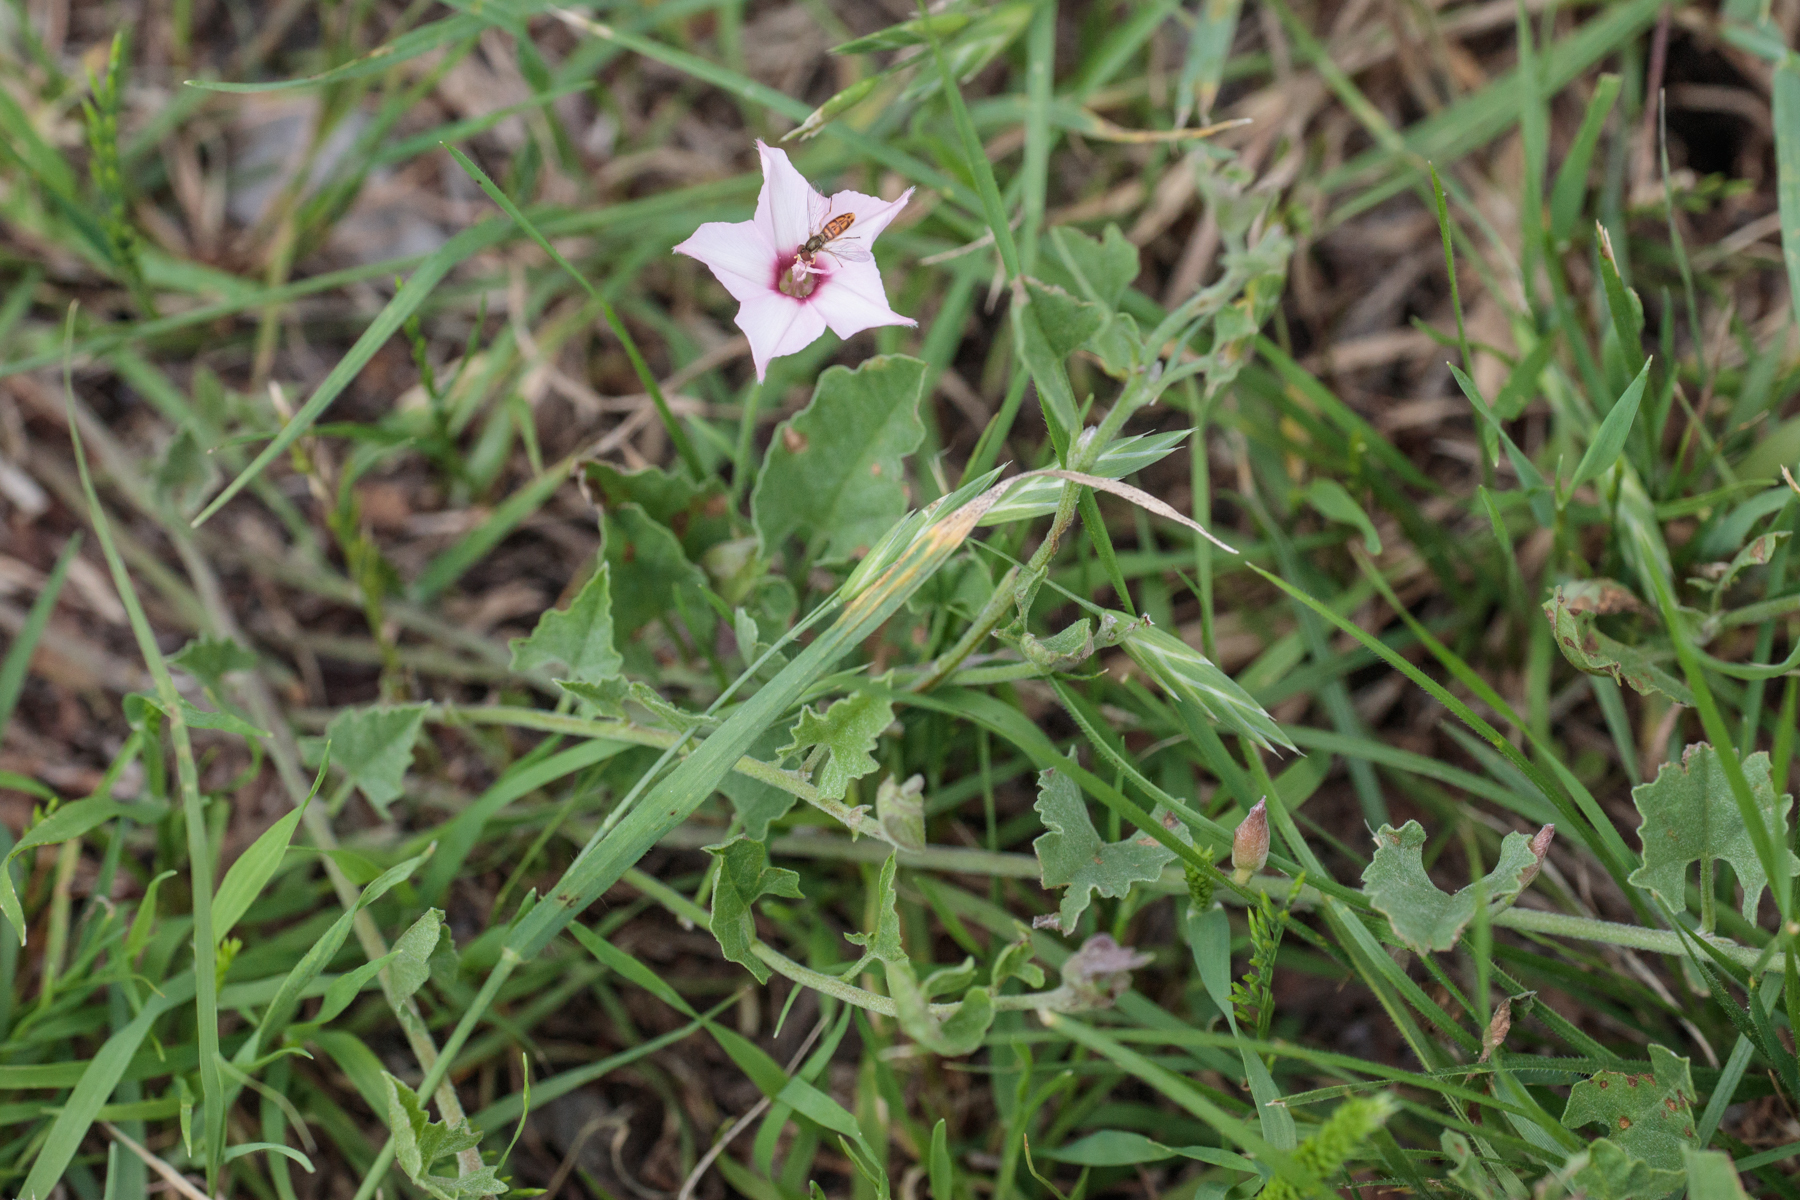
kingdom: Plantae
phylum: Tracheophyta
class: Magnoliopsida
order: Solanales
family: Convolvulaceae
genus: Convolvulus
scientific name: Convolvulus equitans
